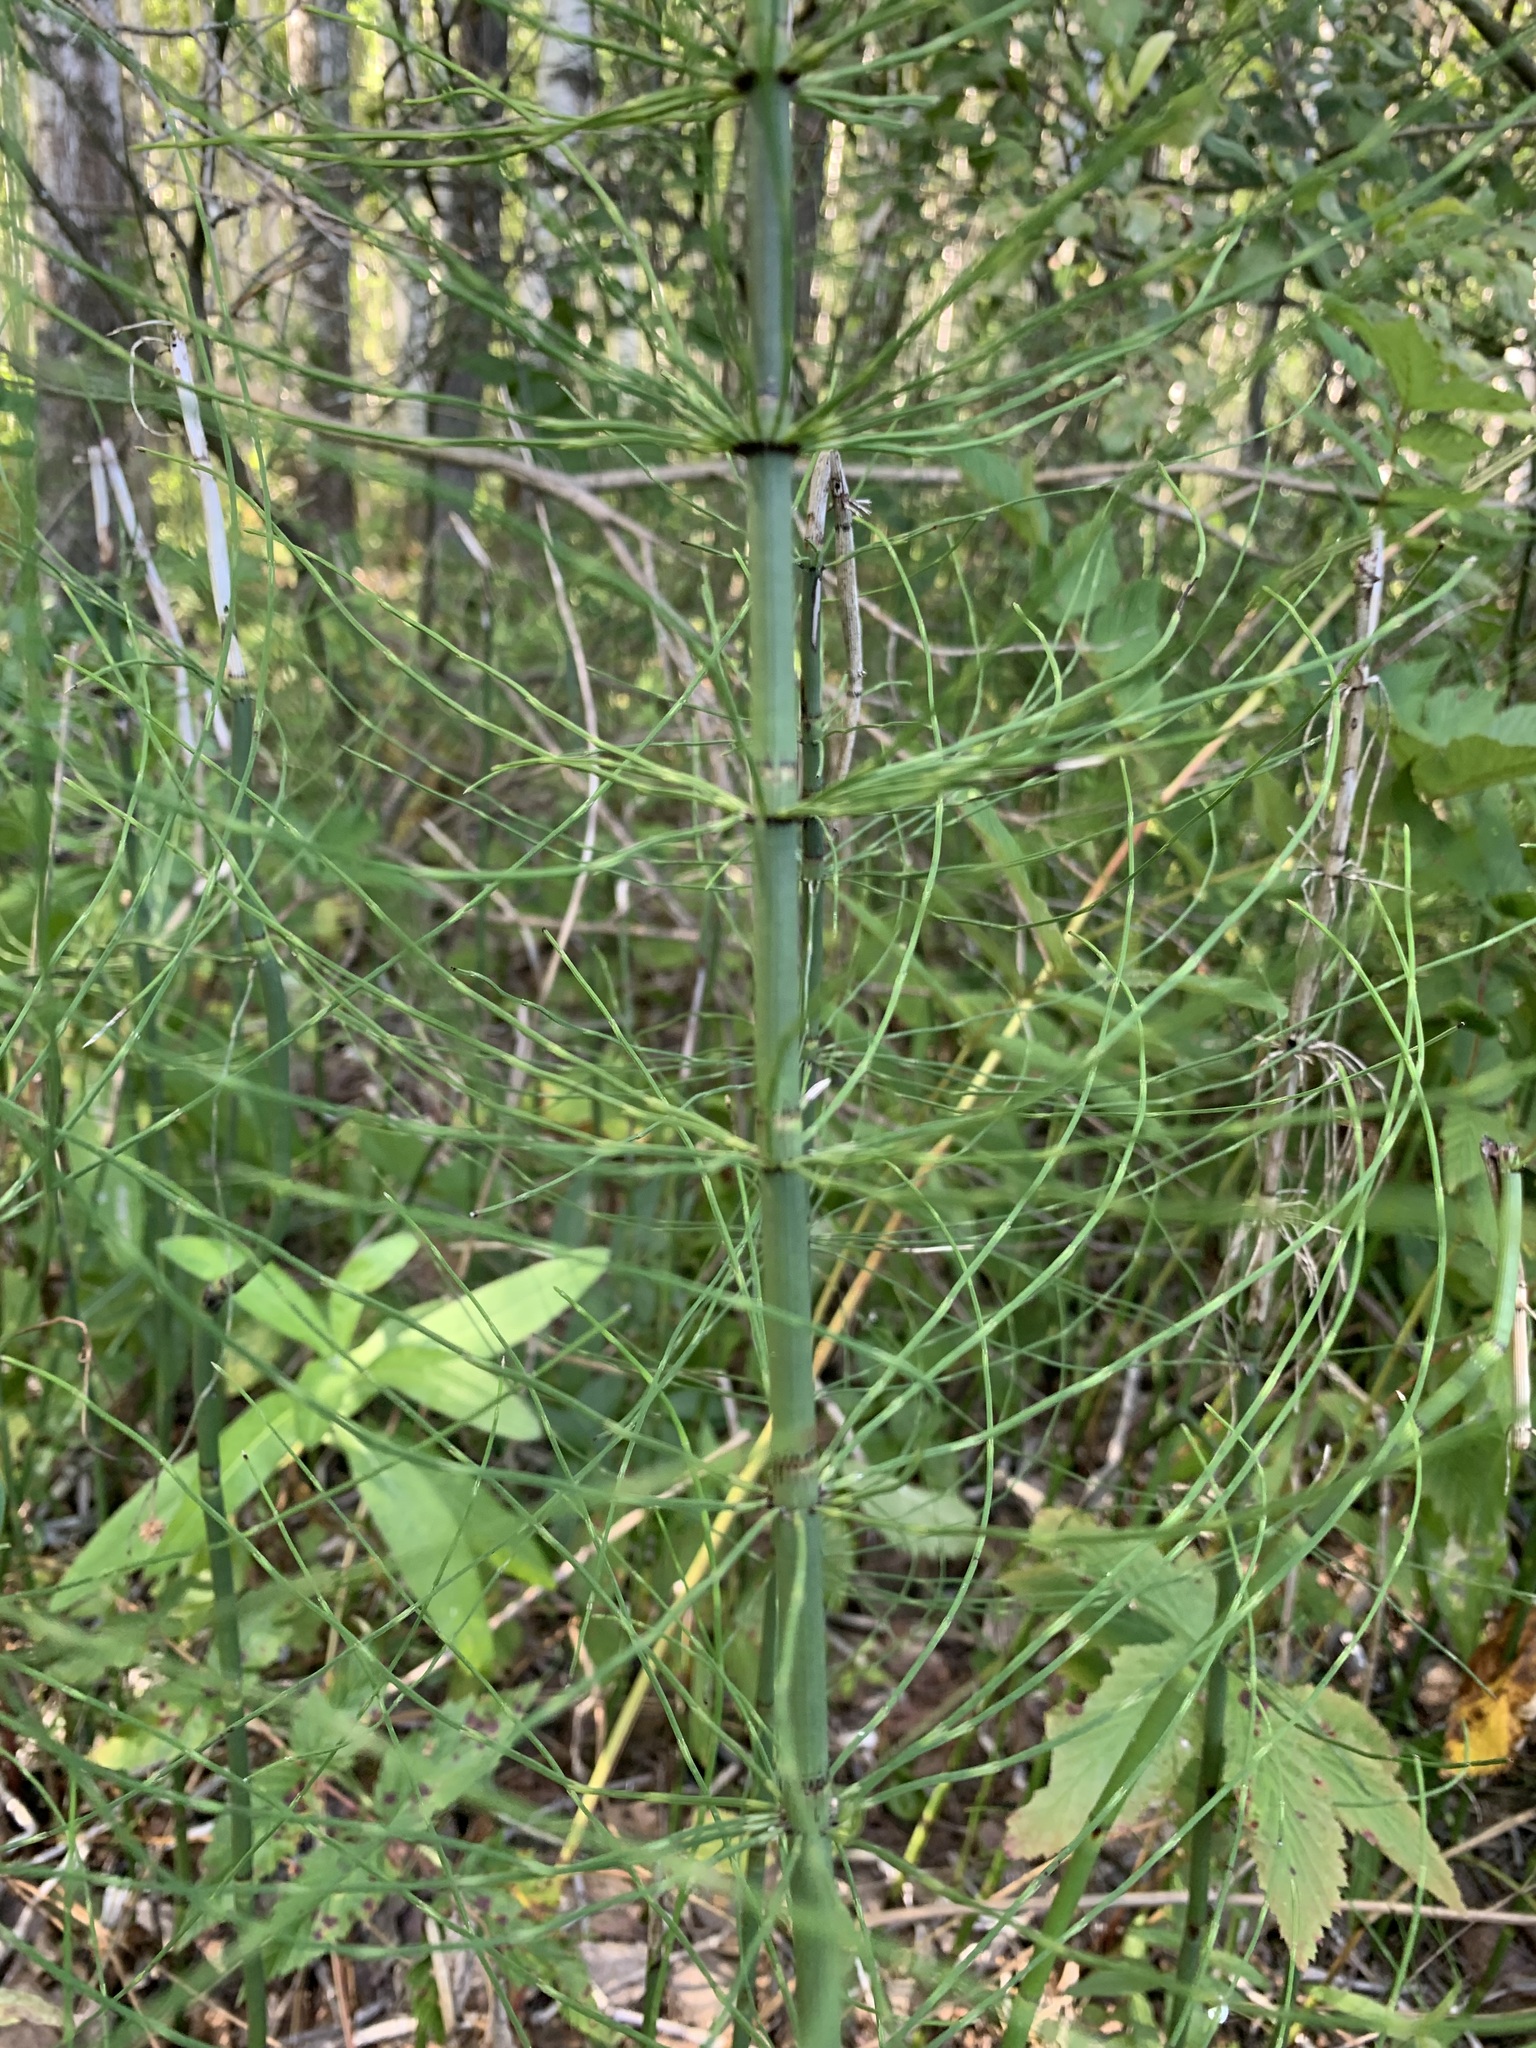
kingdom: Plantae
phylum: Tracheophyta
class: Polypodiopsida
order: Equisetales
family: Equisetaceae
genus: Equisetum
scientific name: Equisetum fluviatile
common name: Water horsetail
